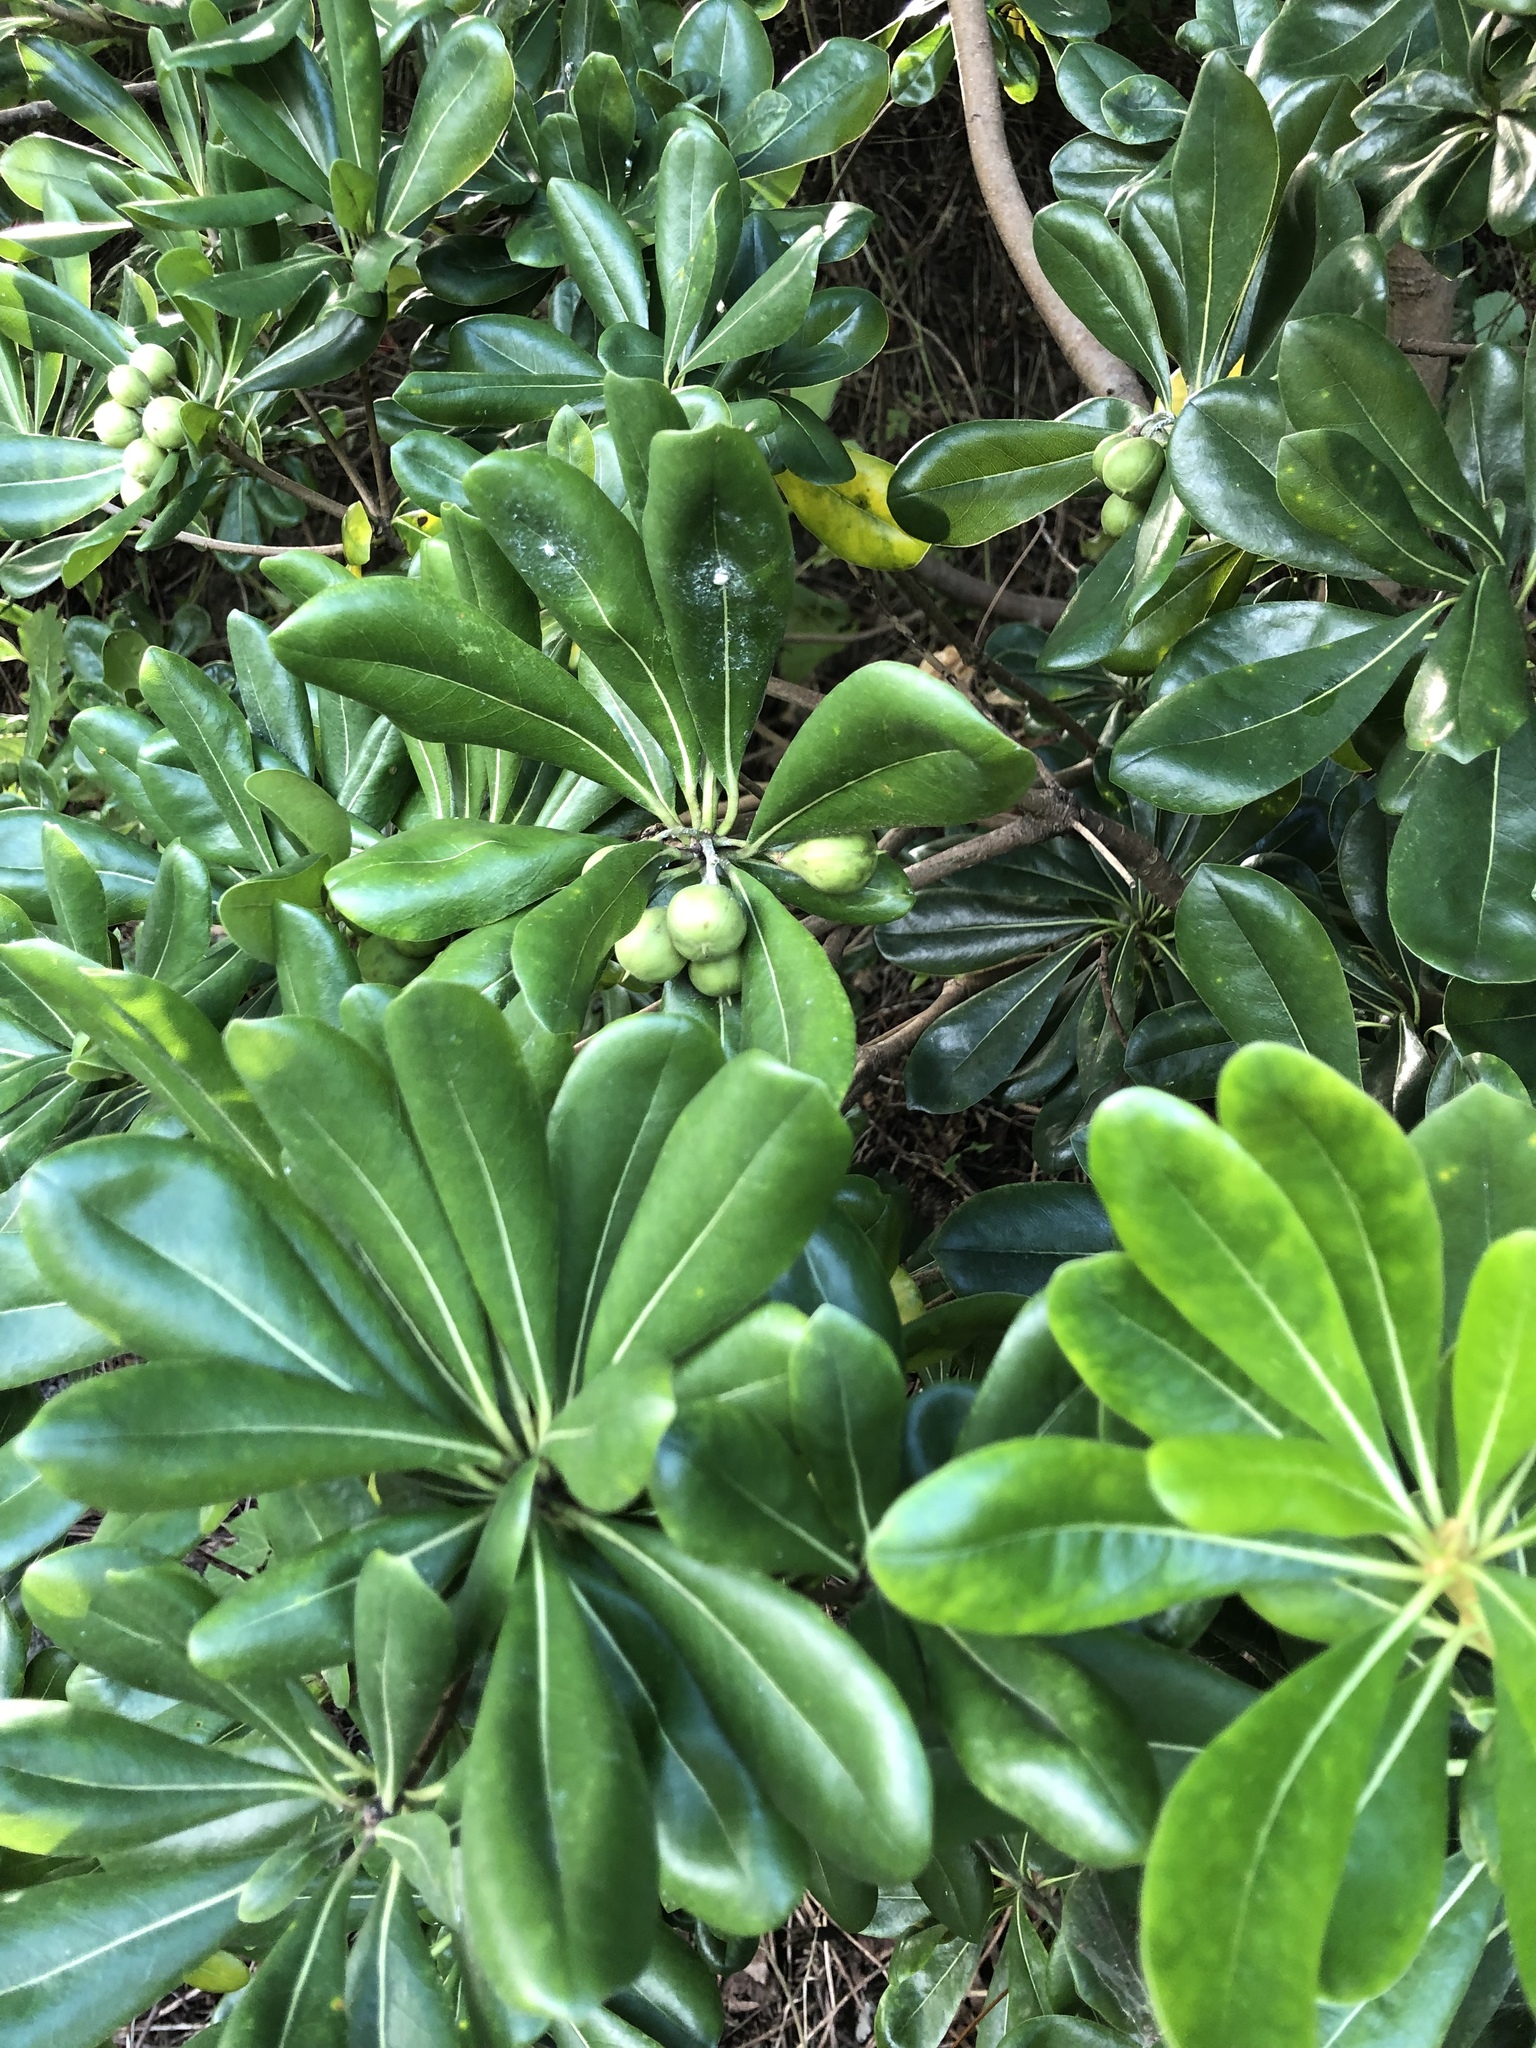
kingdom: Plantae
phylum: Tracheophyta
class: Magnoliopsida
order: Apiales
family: Pittosporaceae
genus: Pittosporum
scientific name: Pittosporum tobira
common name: Japanese cheesewood
